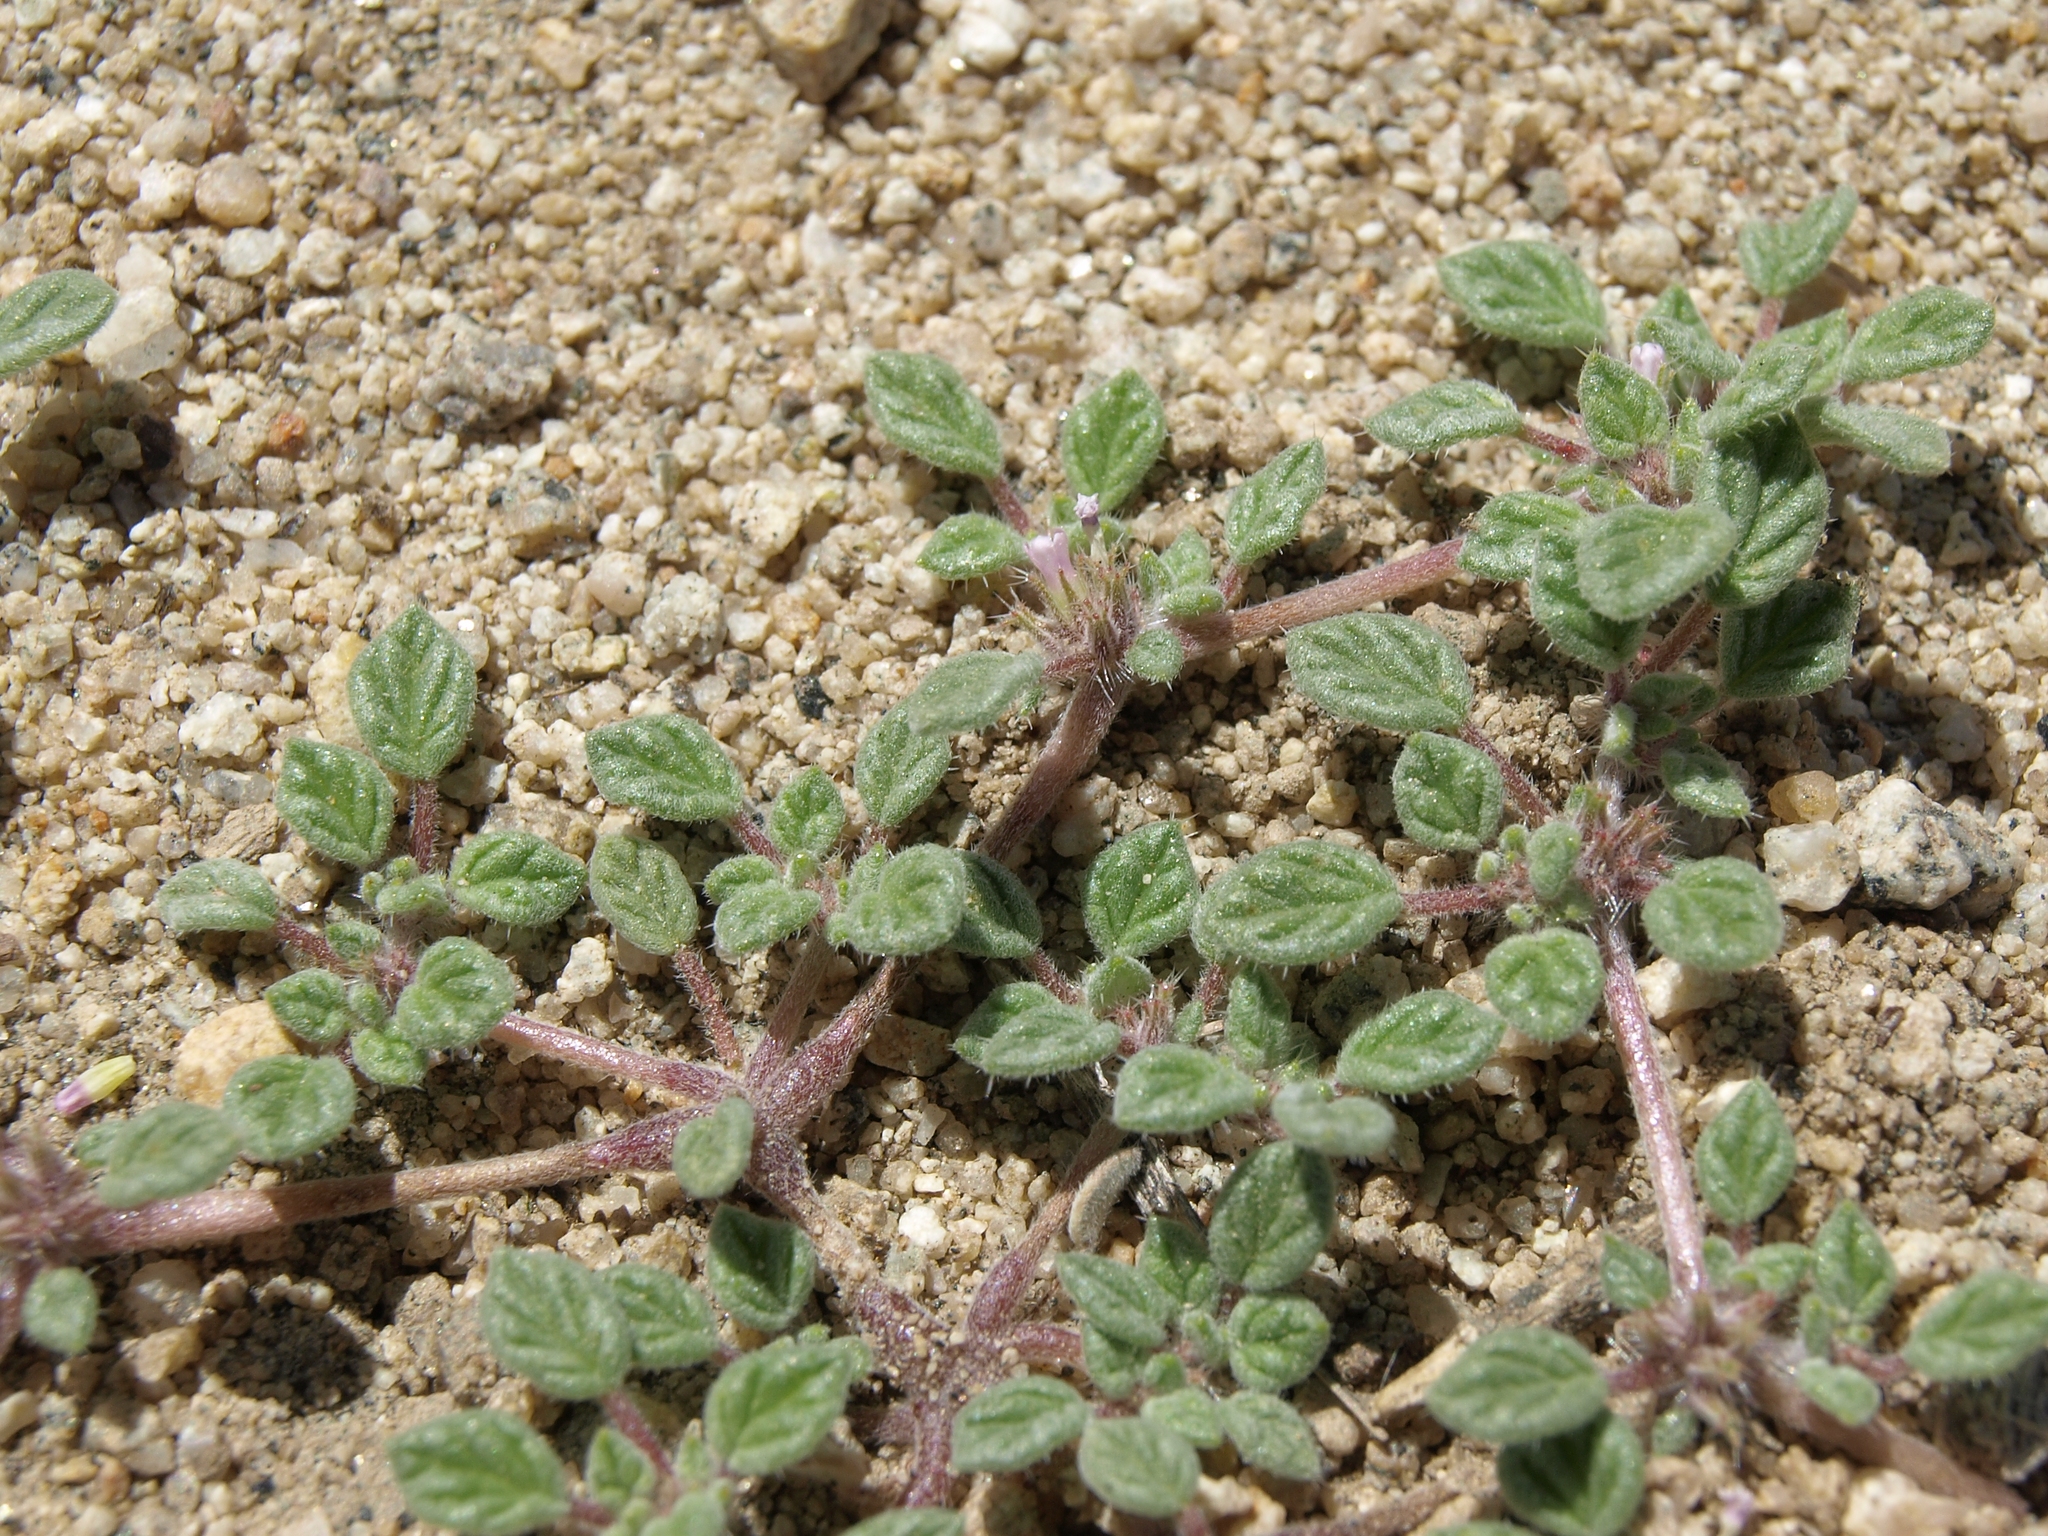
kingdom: Plantae
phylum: Tracheophyta
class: Magnoliopsida
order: Boraginales
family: Ehretiaceae
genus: Tiquilia
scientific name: Tiquilia nuttallii
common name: Rosette tiquilia
